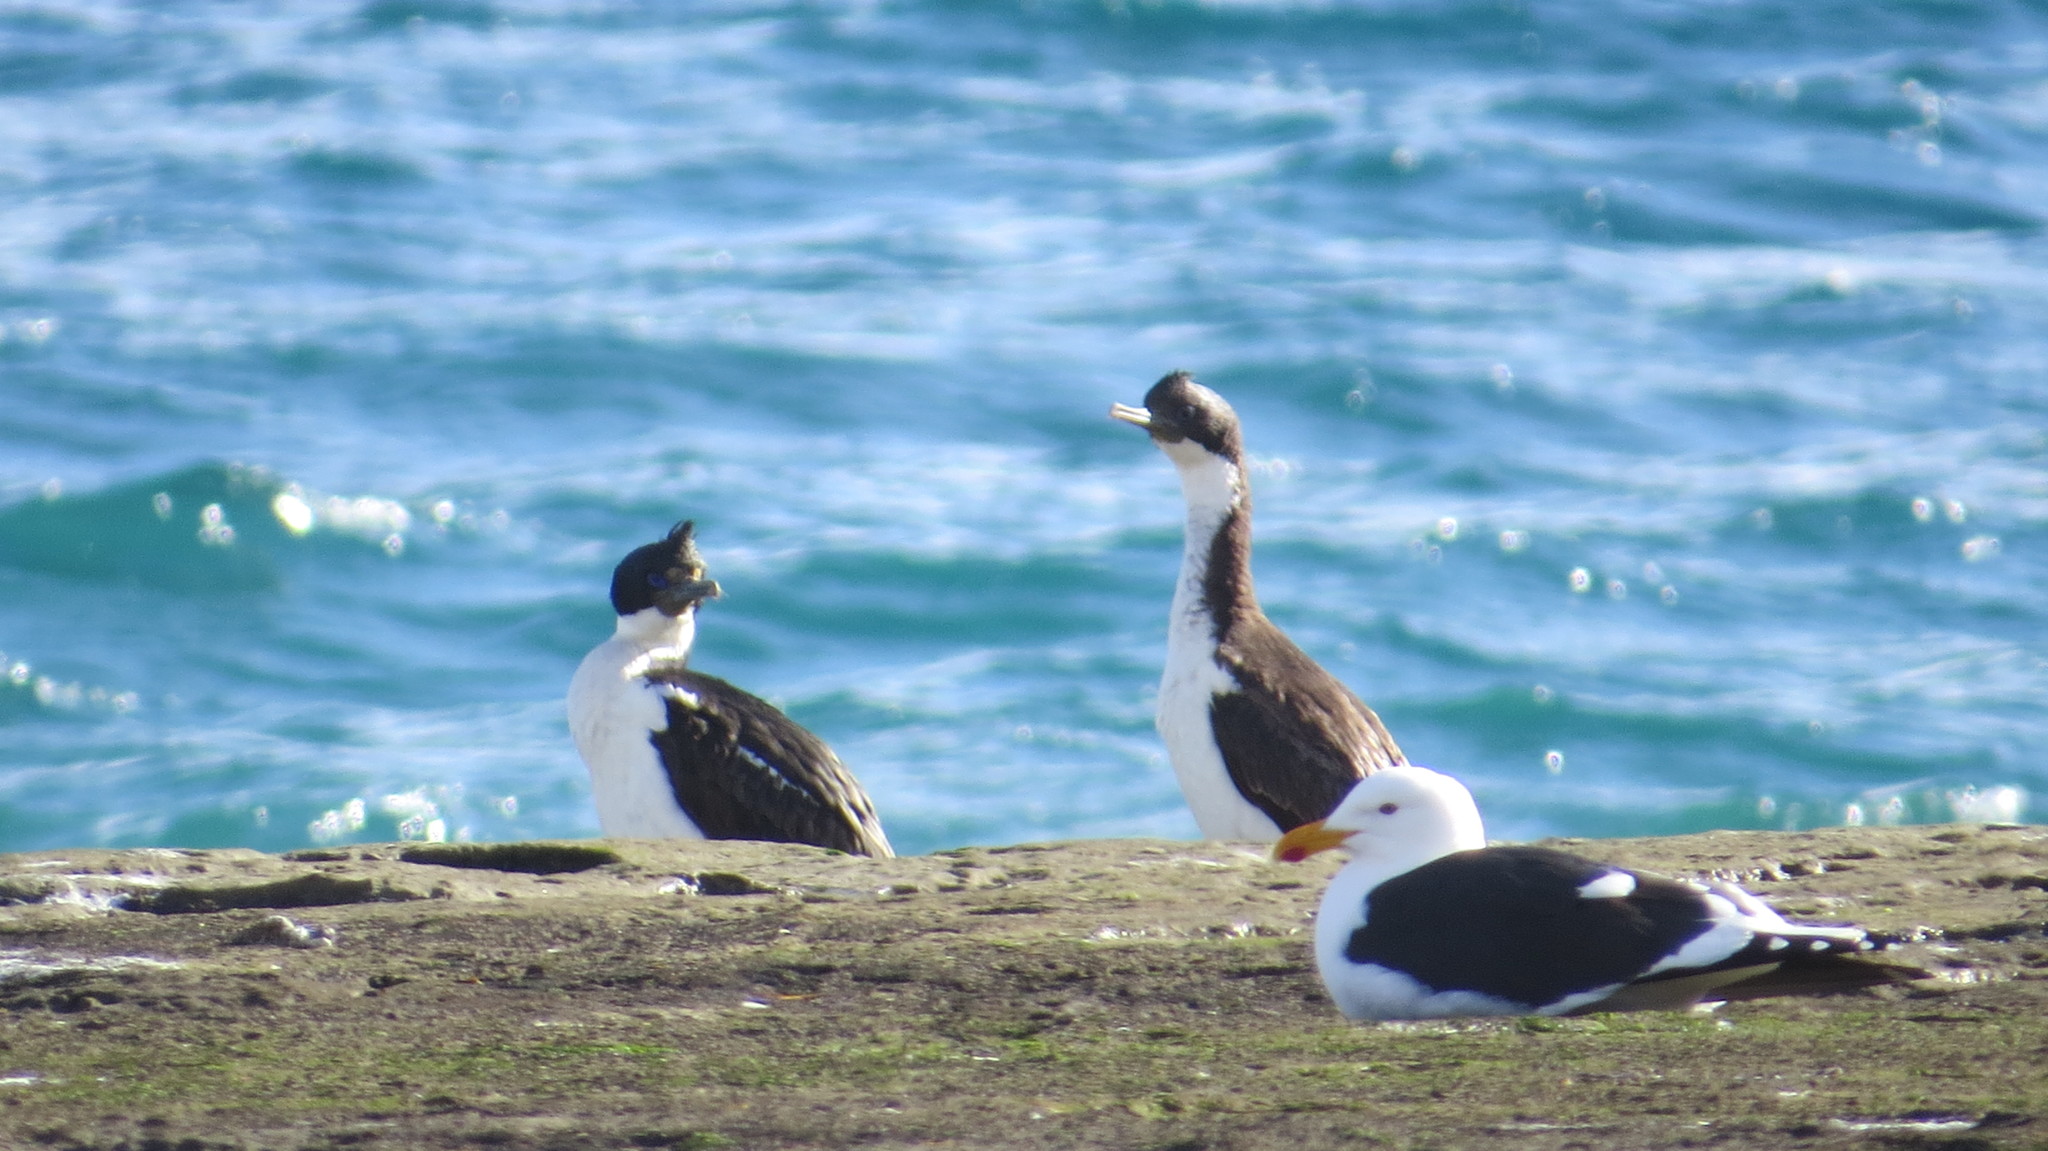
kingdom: Animalia
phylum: Chordata
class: Aves
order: Suliformes
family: Phalacrocoracidae
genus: Leucocarbo
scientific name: Leucocarbo atriceps
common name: Imperial shag
